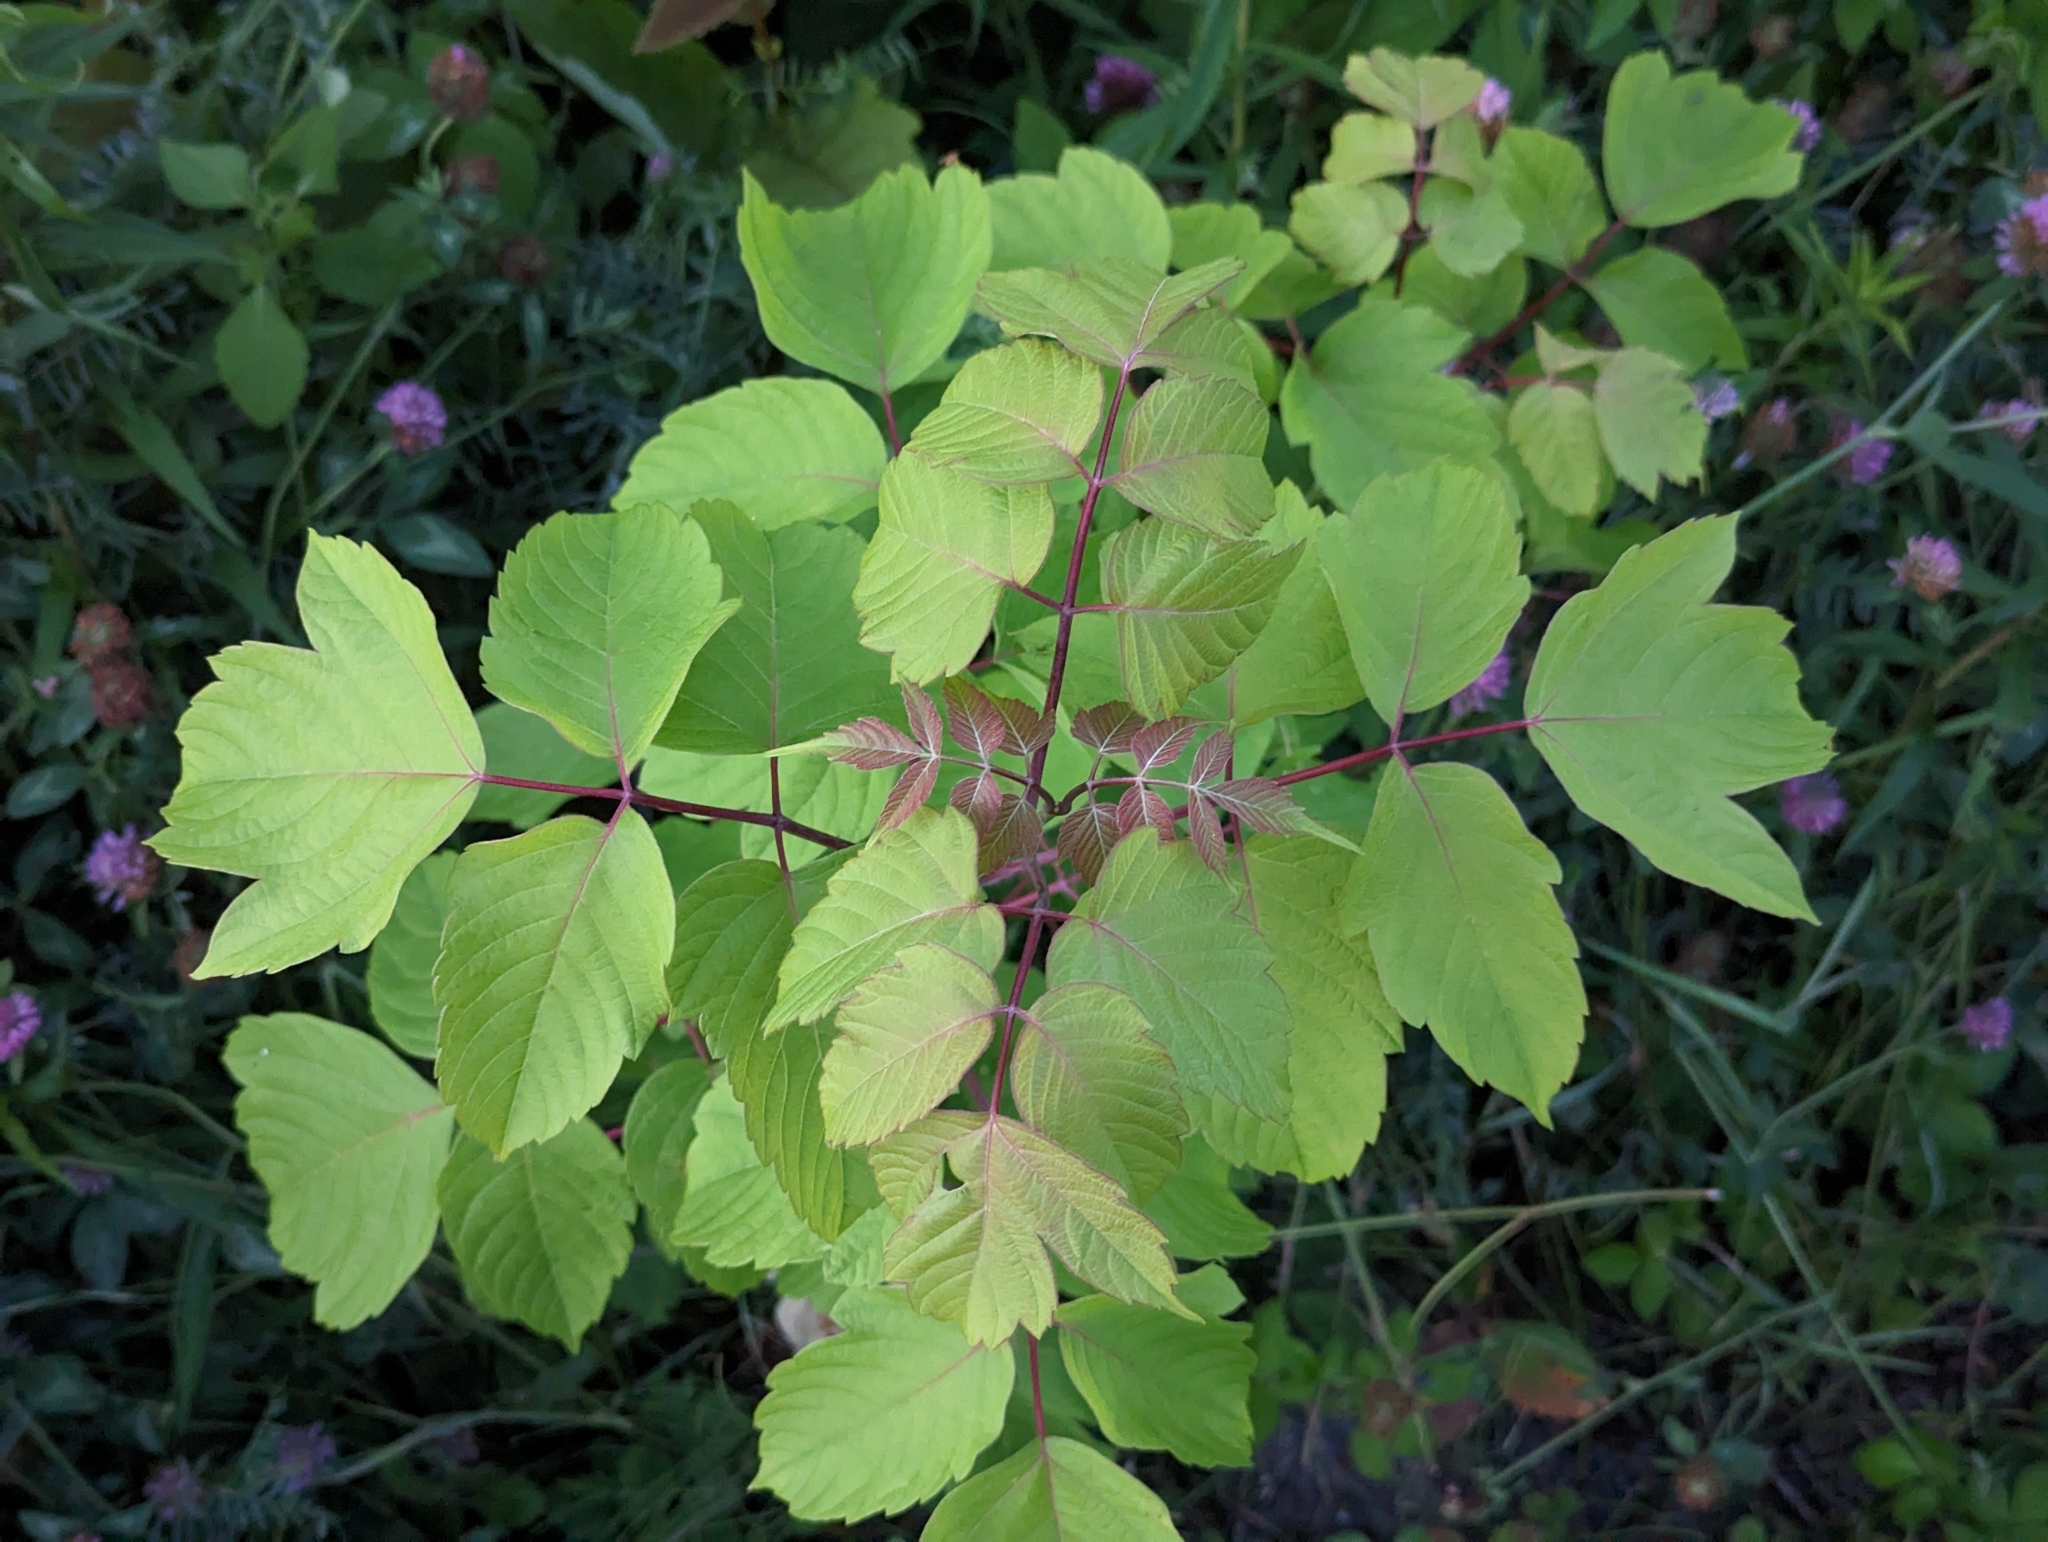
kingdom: Plantae
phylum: Tracheophyta
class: Magnoliopsida
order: Sapindales
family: Sapindaceae
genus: Acer
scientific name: Acer negundo
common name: Ashleaf maple
